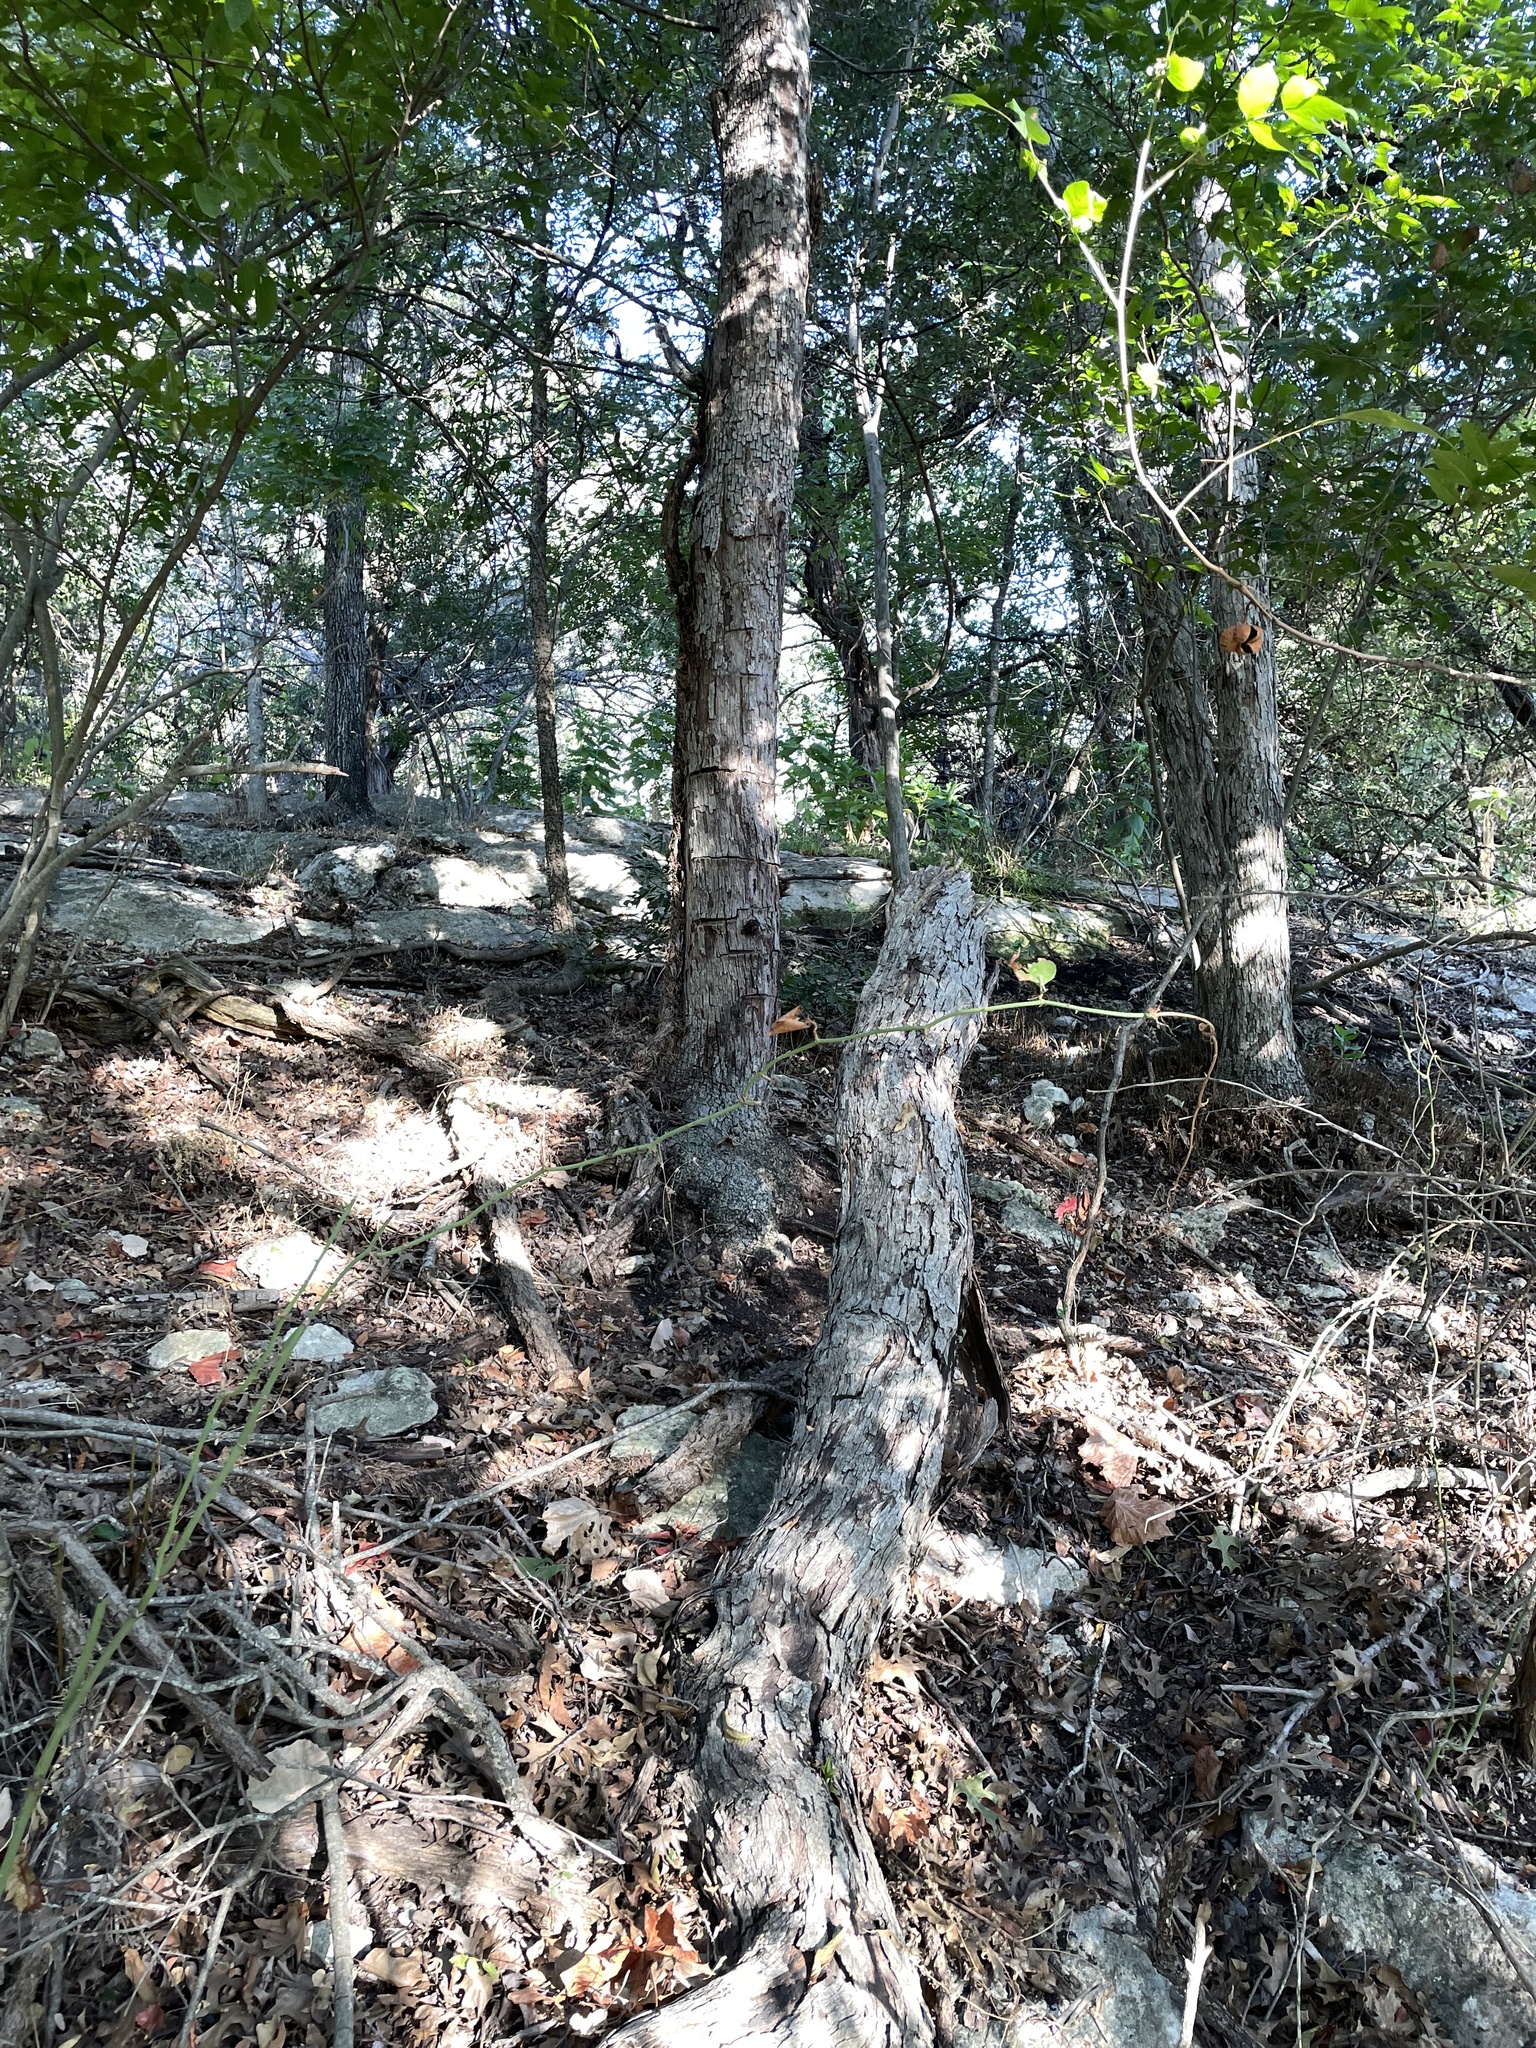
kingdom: Plantae
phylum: Tracheophyta
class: Magnoliopsida
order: Fagales
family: Fagaceae
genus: Quercus
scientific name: Quercus sinuata
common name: Durand oak
